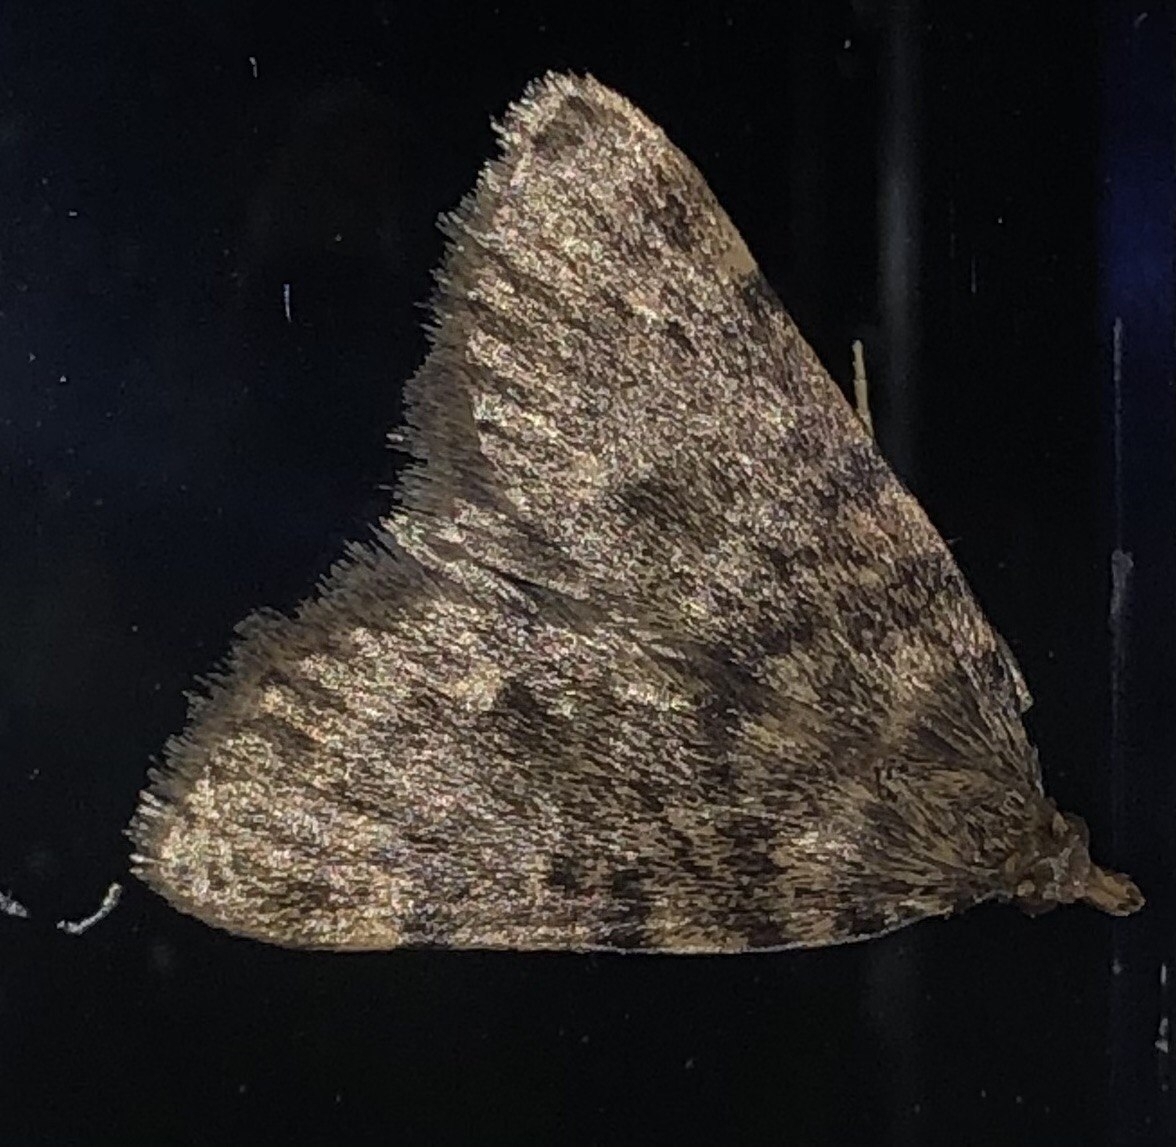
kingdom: Animalia
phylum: Arthropoda
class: Insecta
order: Lepidoptera
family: Pyralidae
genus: Aglossa
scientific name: Aglossa pinguinalis
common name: Large tabby
